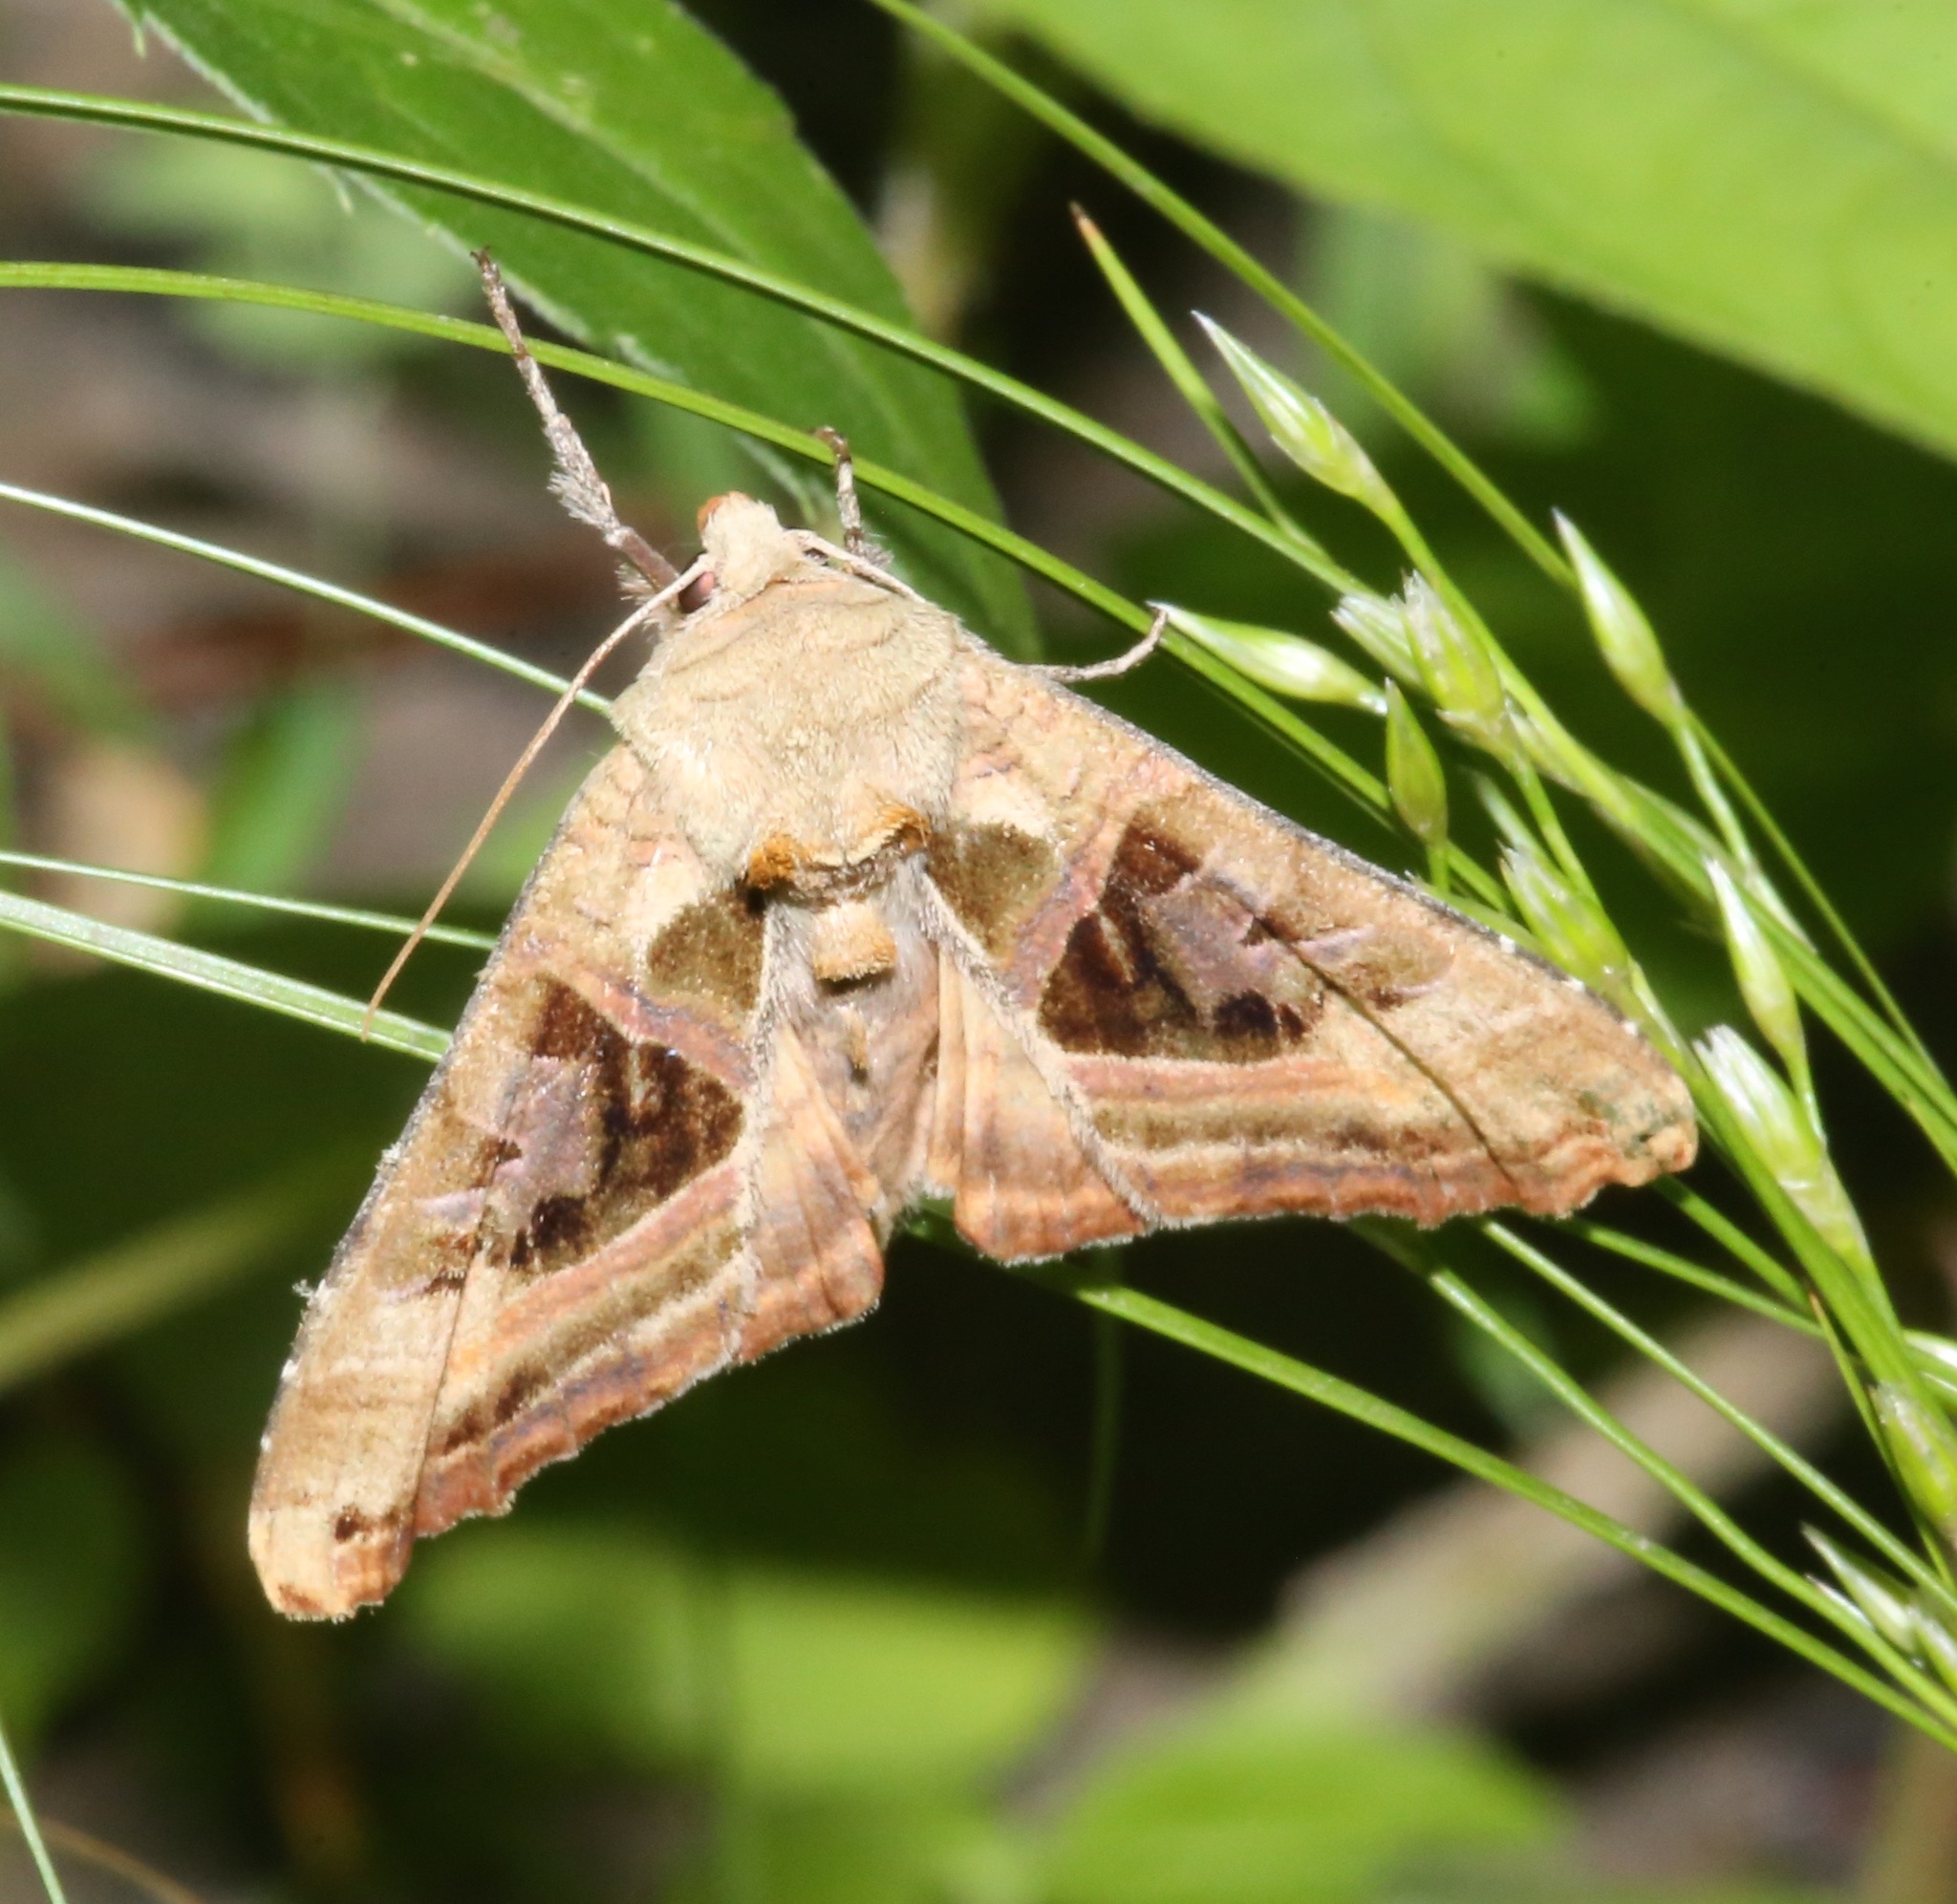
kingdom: Animalia
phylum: Arthropoda
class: Insecta
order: Lepidoptera
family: Noctuidae
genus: Phlogophora
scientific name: Phlogophora iris
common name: Olive angle shades
